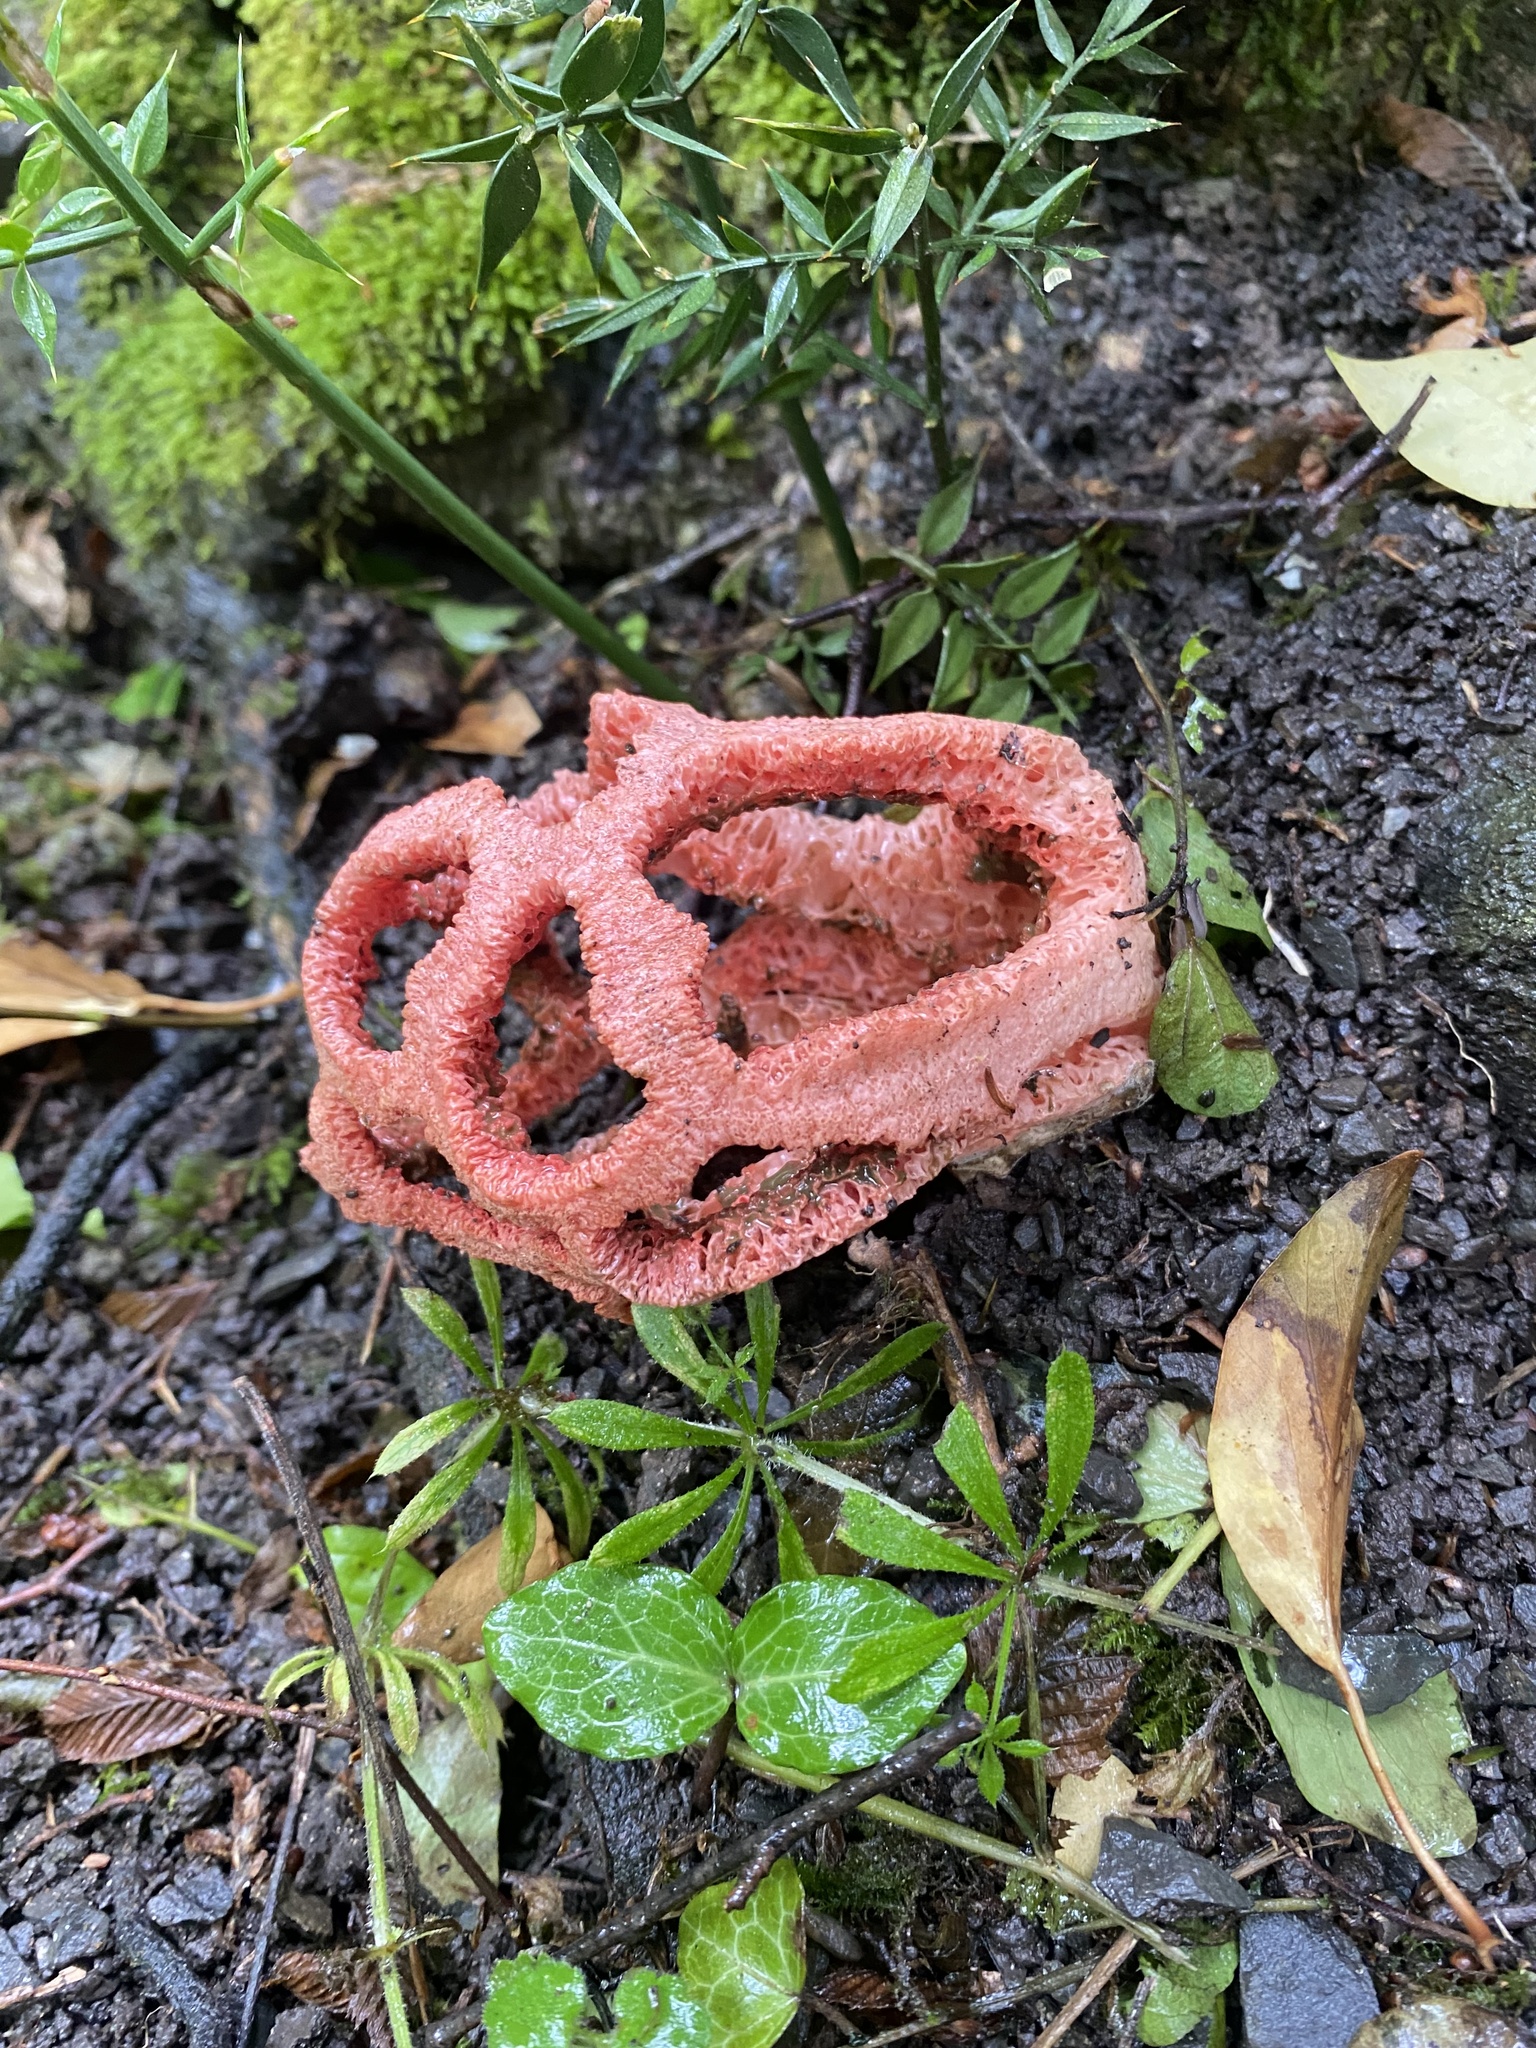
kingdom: Fungi
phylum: Basidiomycota
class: Agaricomycetes
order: Phallales
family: Phallaceae
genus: Clathrus
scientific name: Clathrus ruber
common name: Red cage
